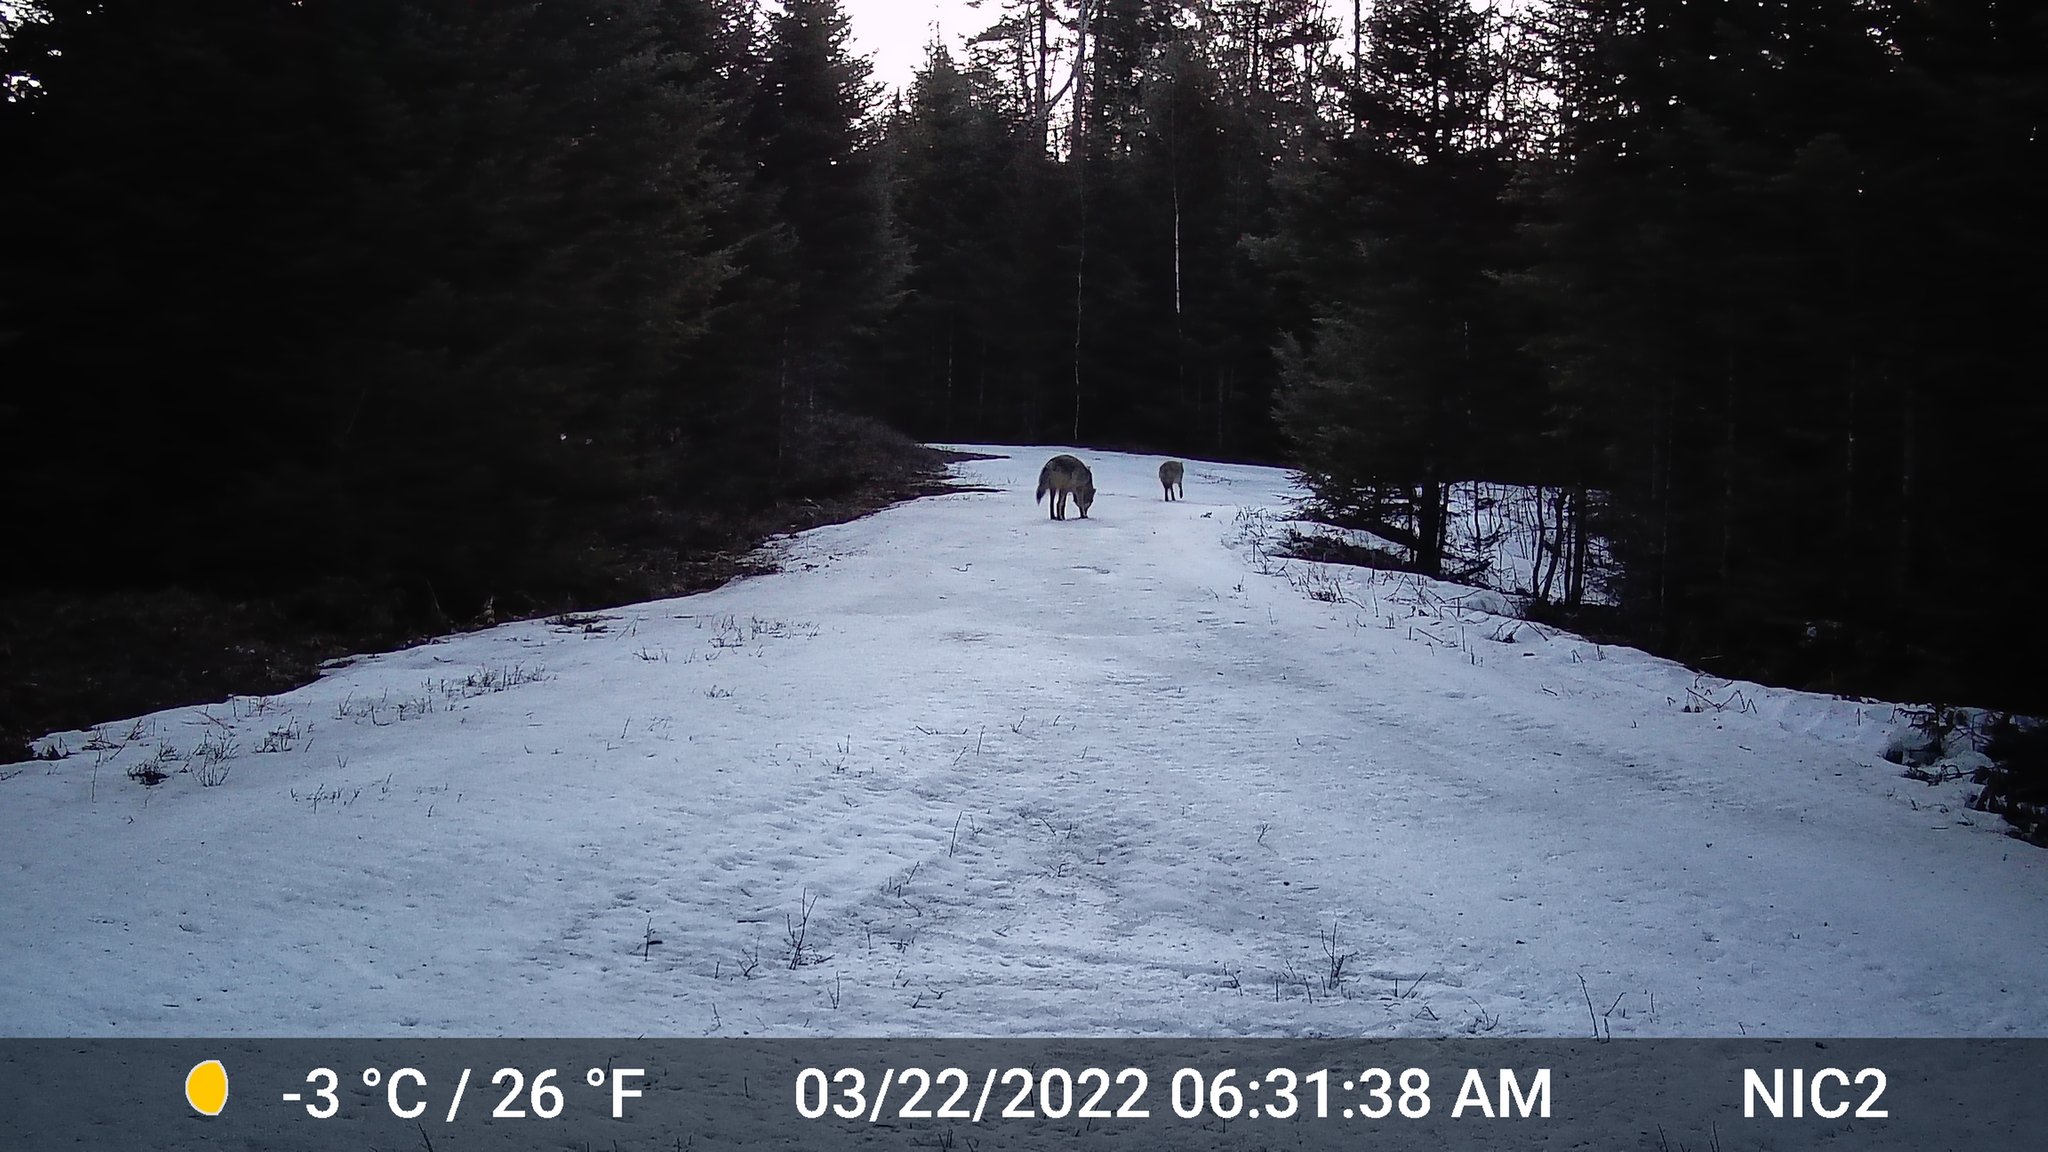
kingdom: Animalia
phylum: Chordata
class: Mammalia
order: Carnivora
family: Canidae
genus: Canis
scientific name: Canis latrans
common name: Coyote
